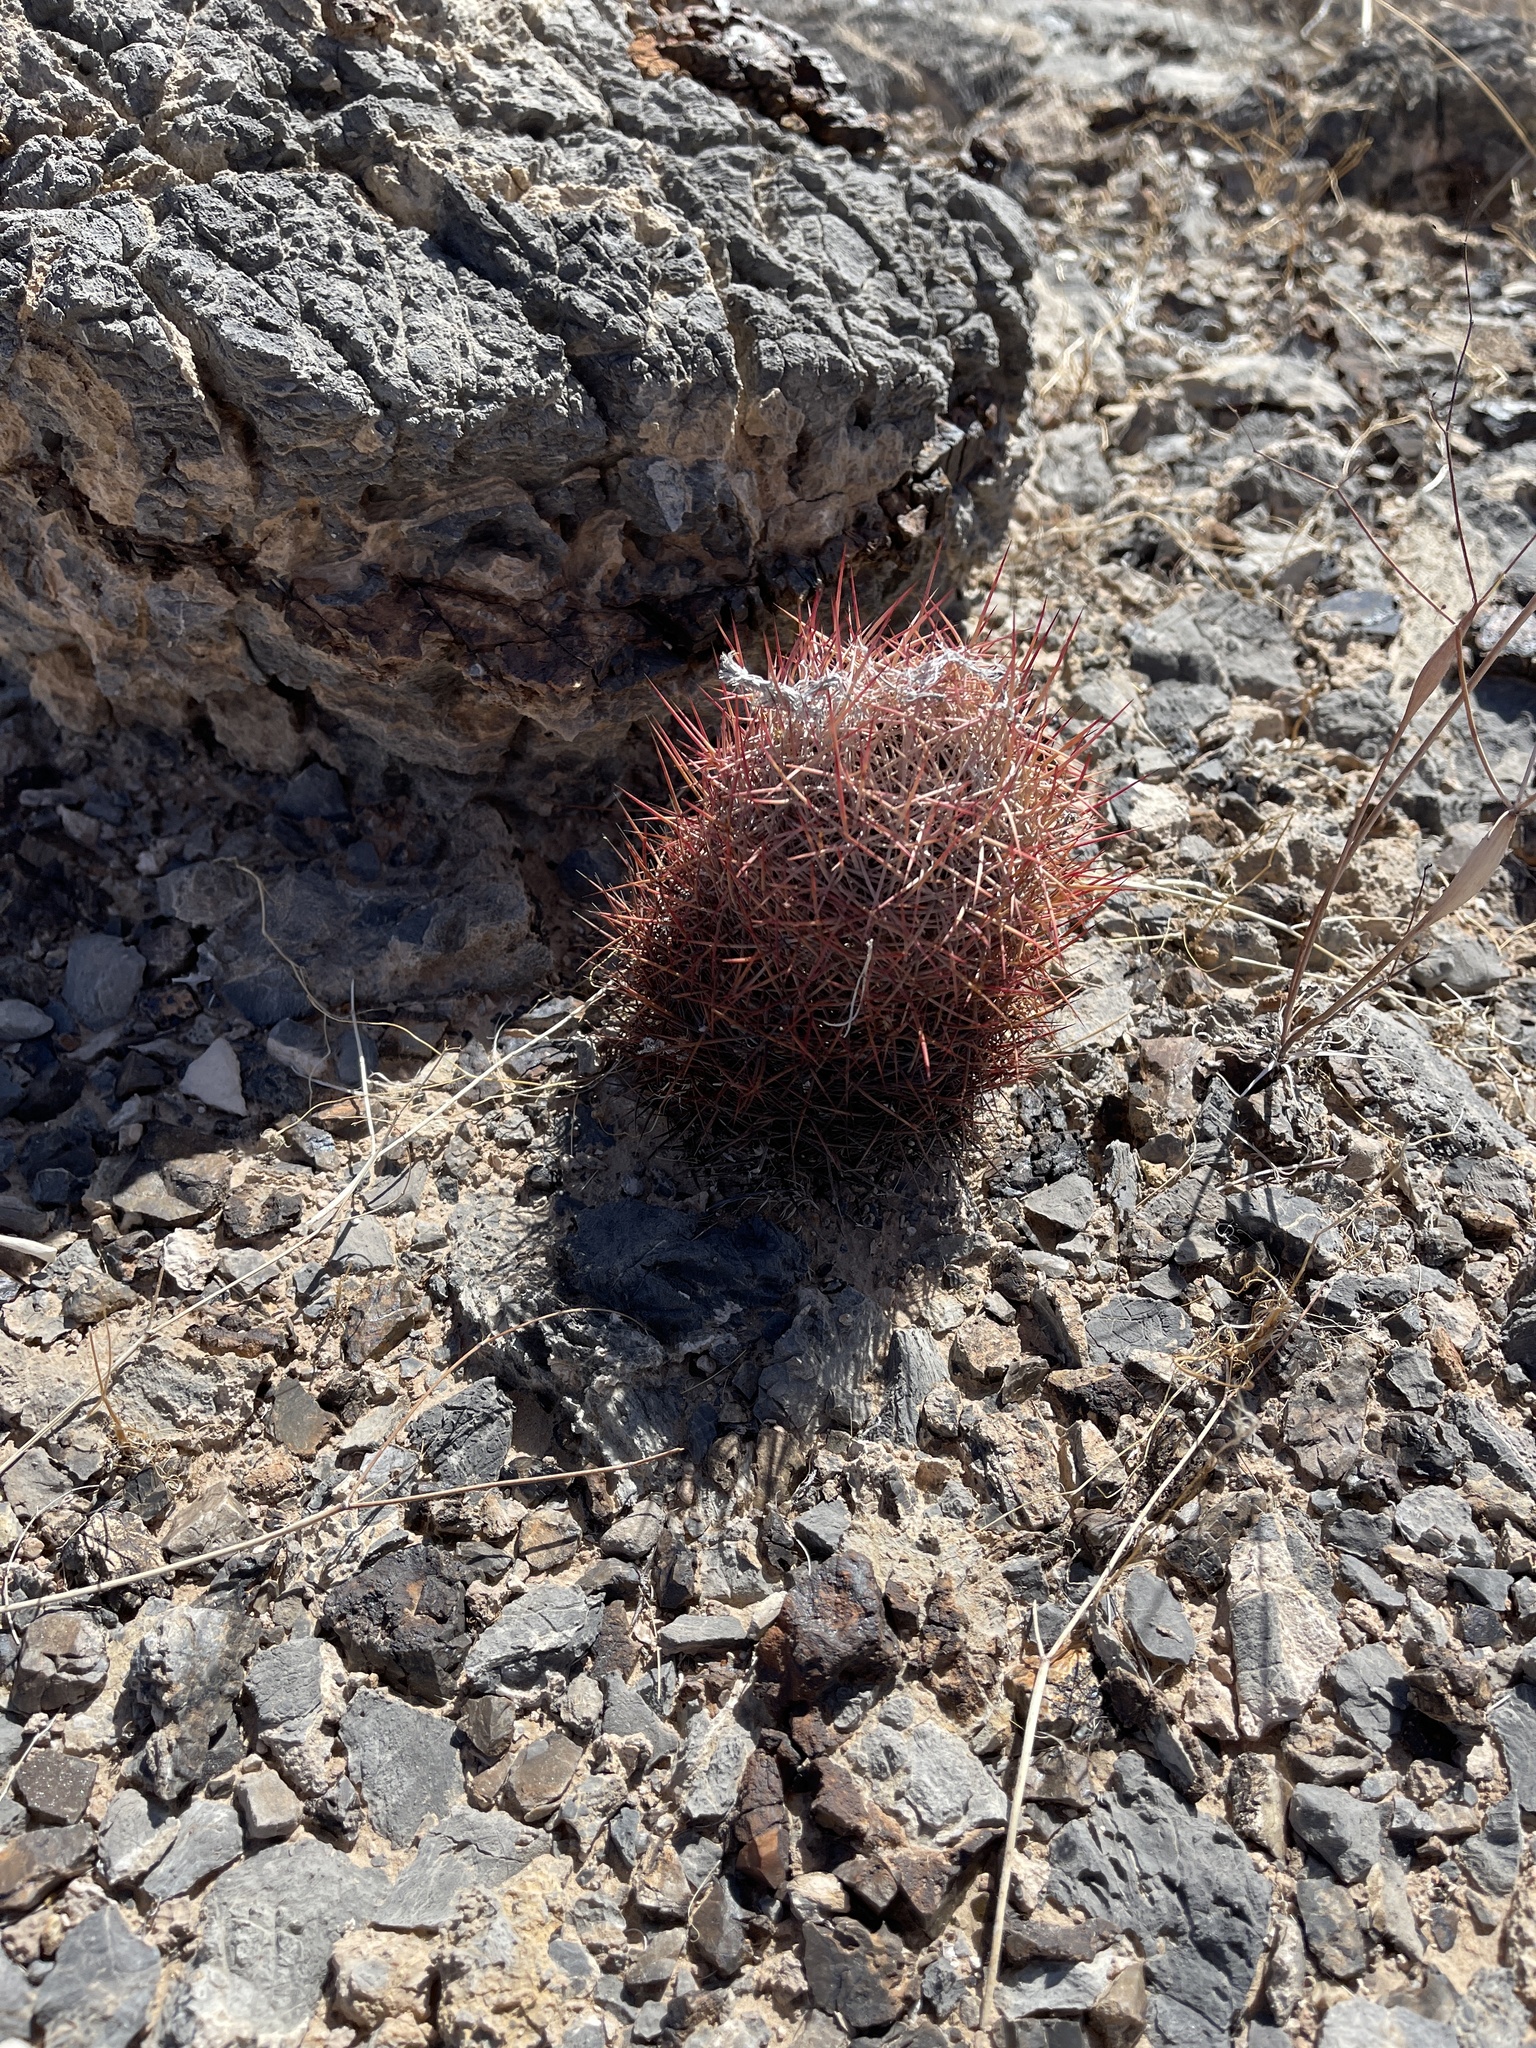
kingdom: Plantae
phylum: Tracheophyta
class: Magnoliopsida
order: Caryophyllales
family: Cactaceae
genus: Sclerocactus
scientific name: Sclerocactus johnsonii
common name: Eight-spine fishhook cactus
